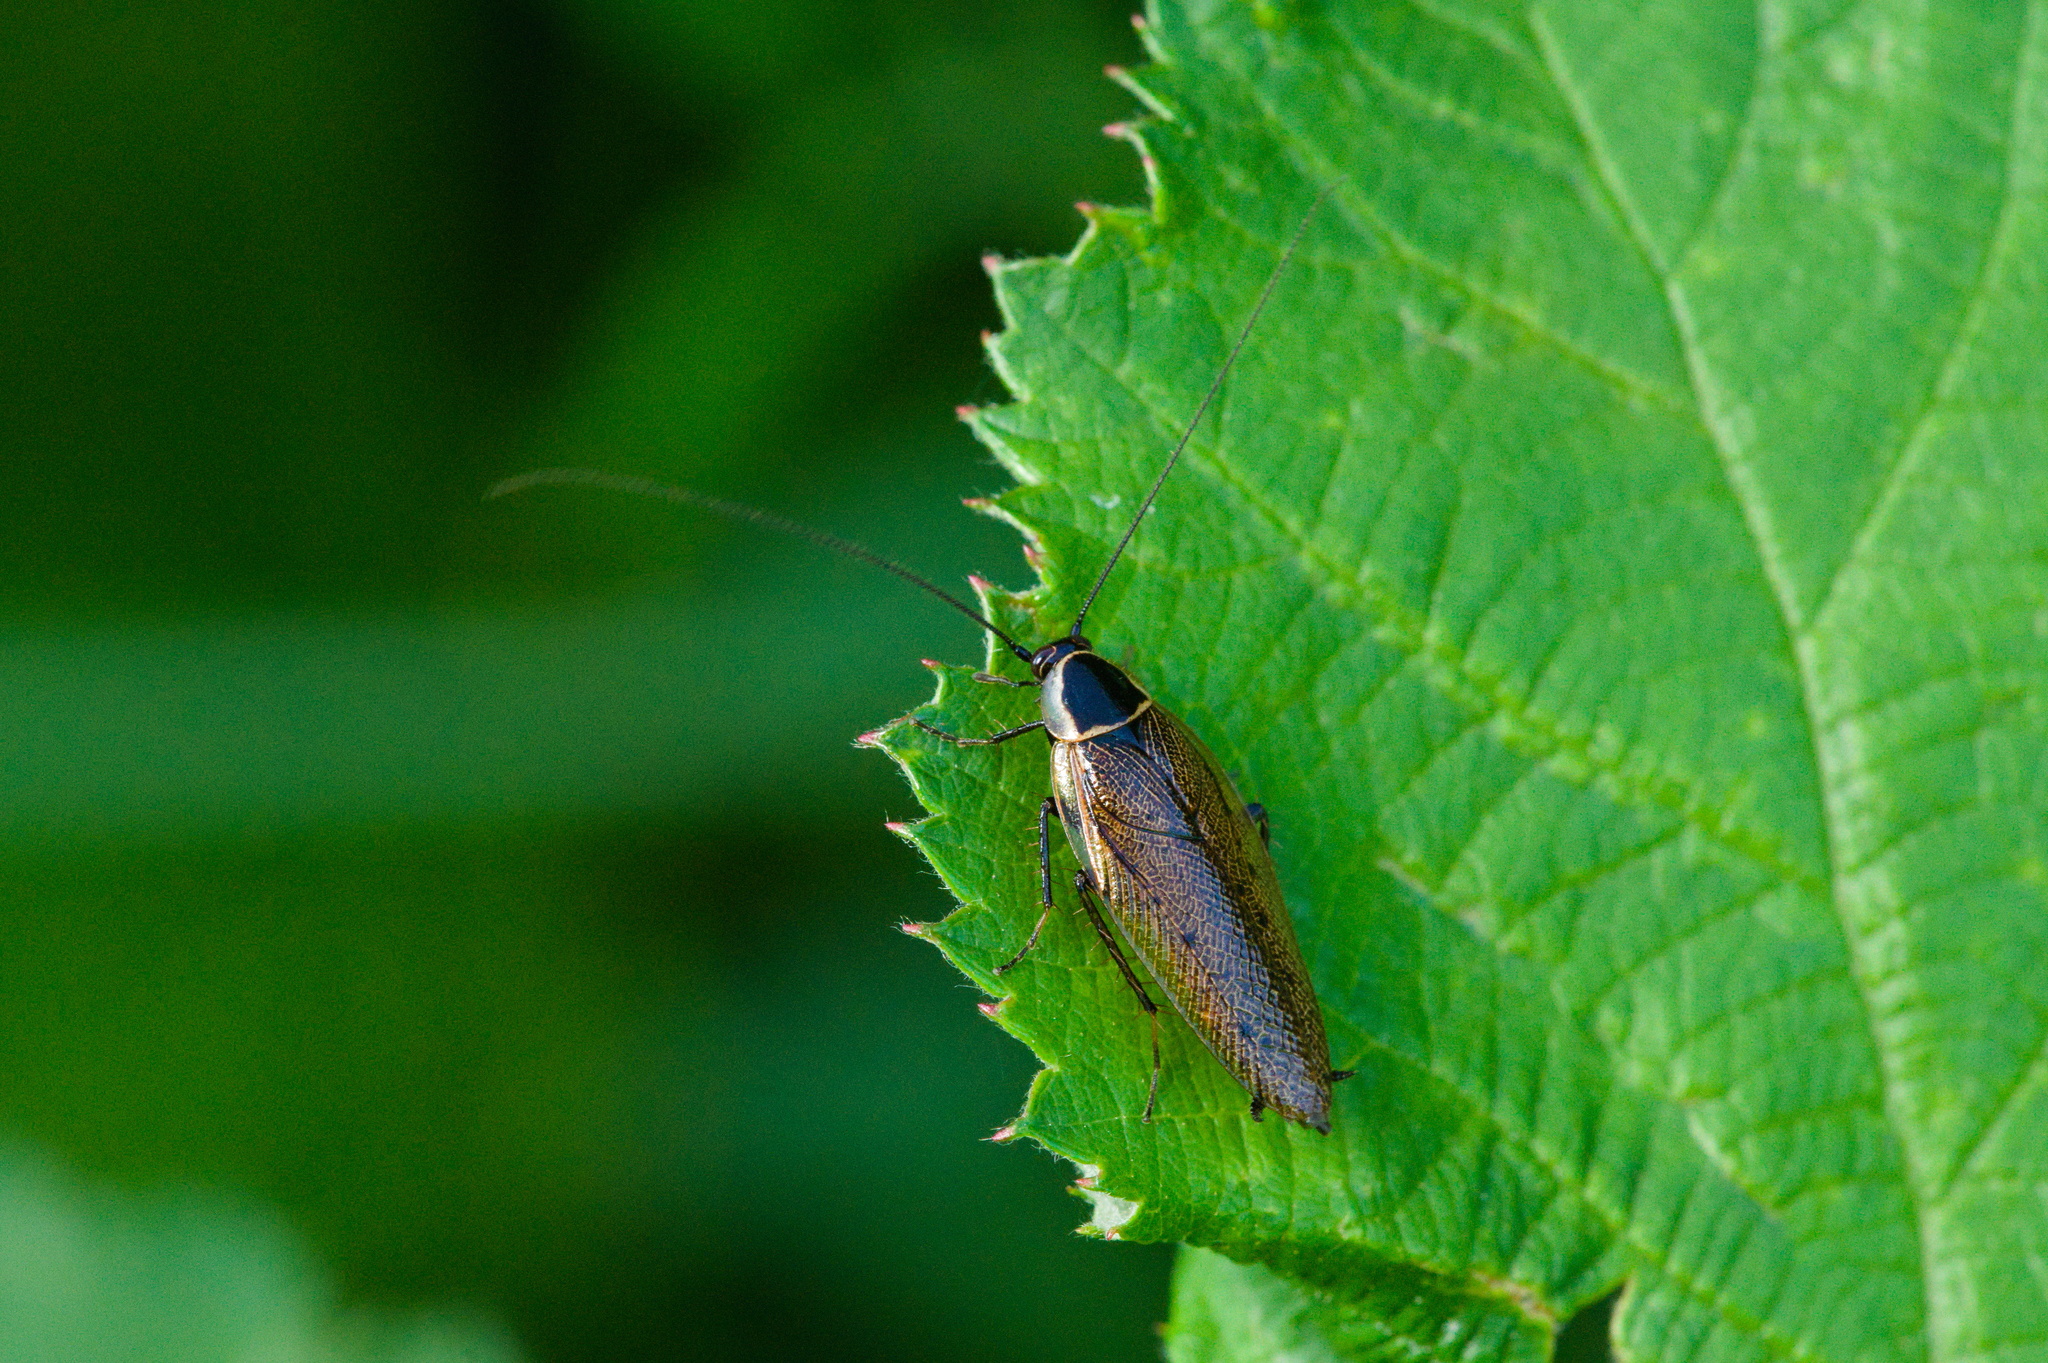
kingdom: Animalia
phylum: Arthropoda
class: Insecta
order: Blattodea
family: Ectobiidae
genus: Ectobius
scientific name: Ectobius sylvestris
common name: Forest cockroach
